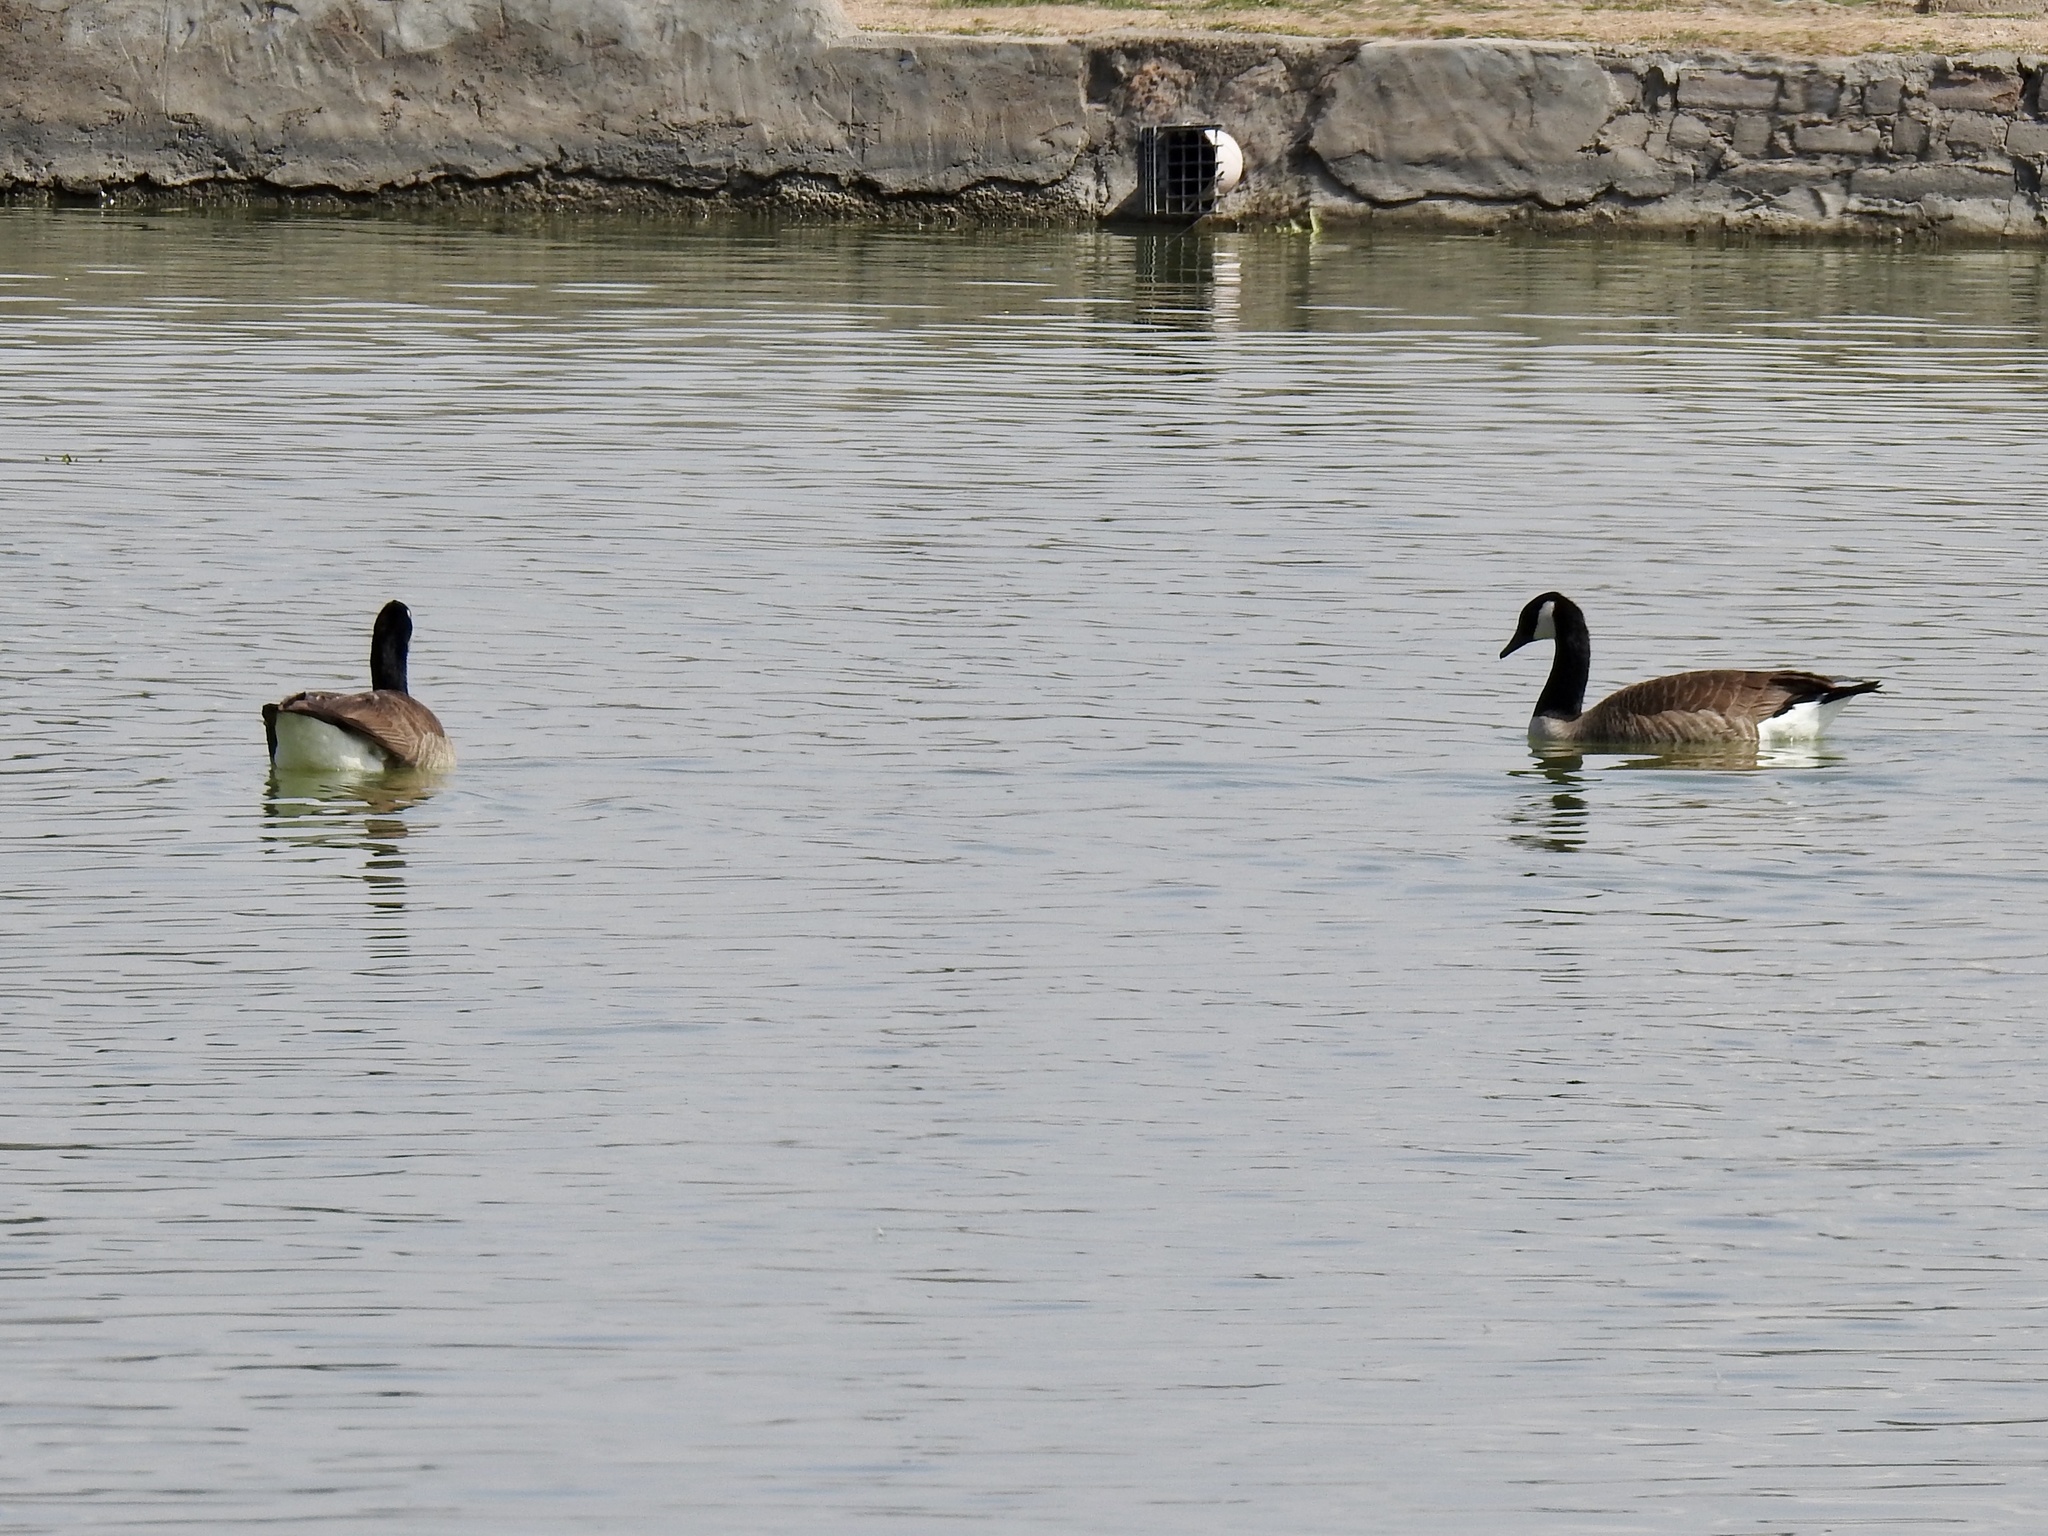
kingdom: Animalia
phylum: Chordata
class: Aves
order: Anseriformes
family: Anatidae
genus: Branta
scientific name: Branta canadensis
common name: Canada goose
